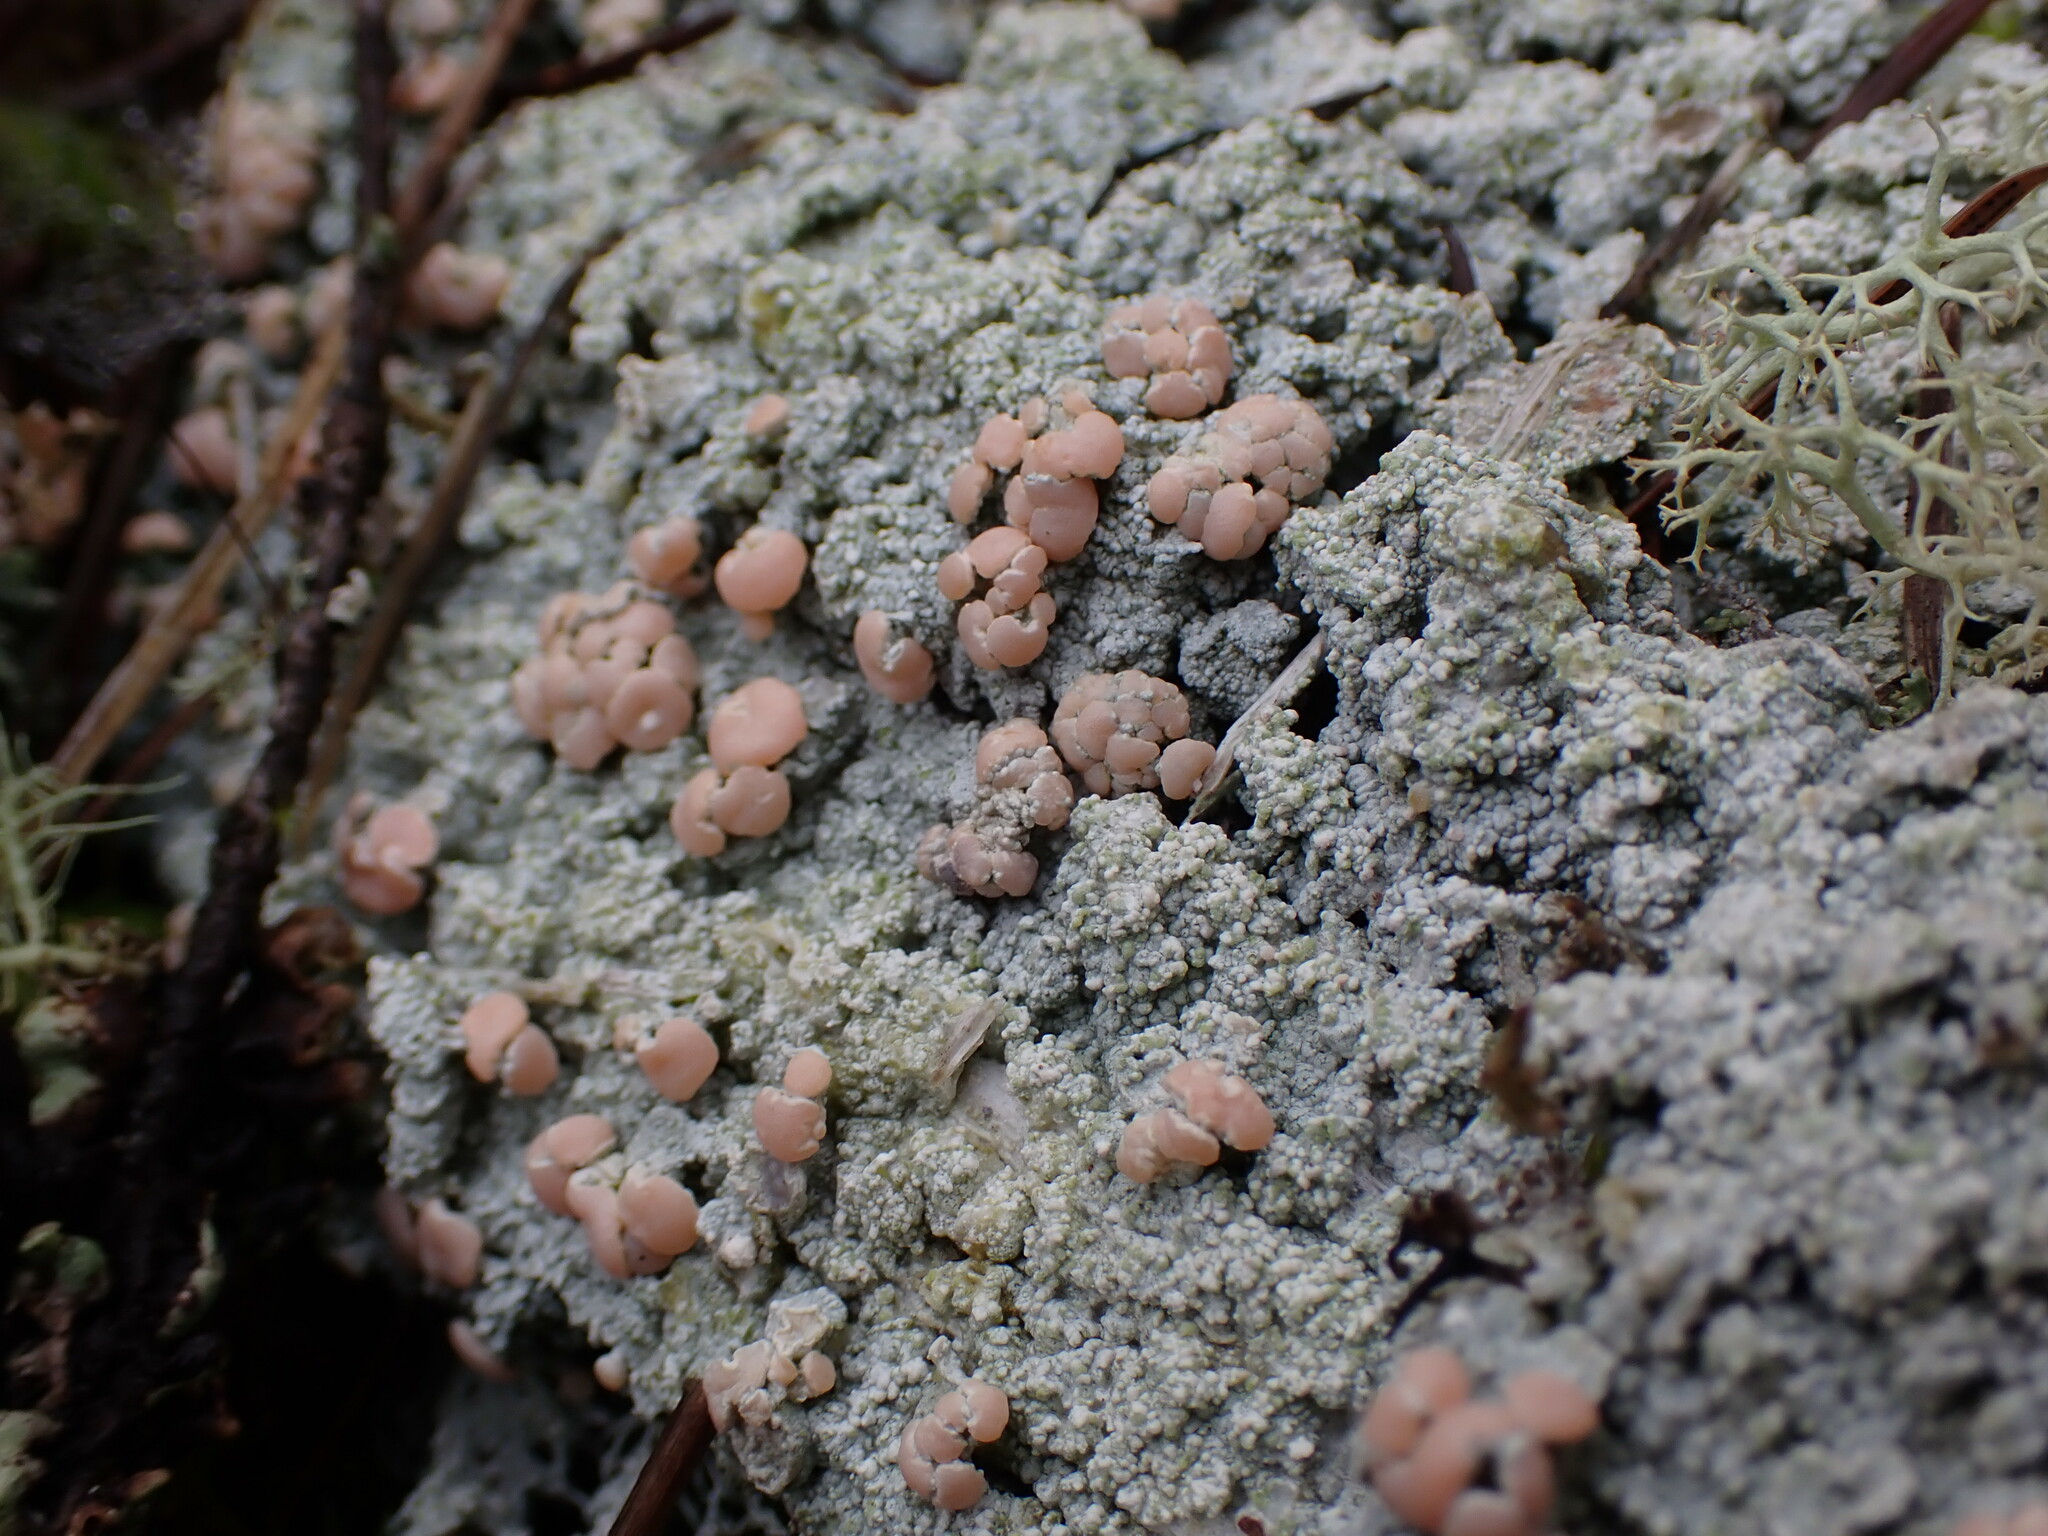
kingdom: Fungi
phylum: Ascomycota
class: Lecanoromycetes
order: Pertusariales
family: Icmadophilaceae
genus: Icmadophila
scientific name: Icmadophila ericetorum
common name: Candy lichen
